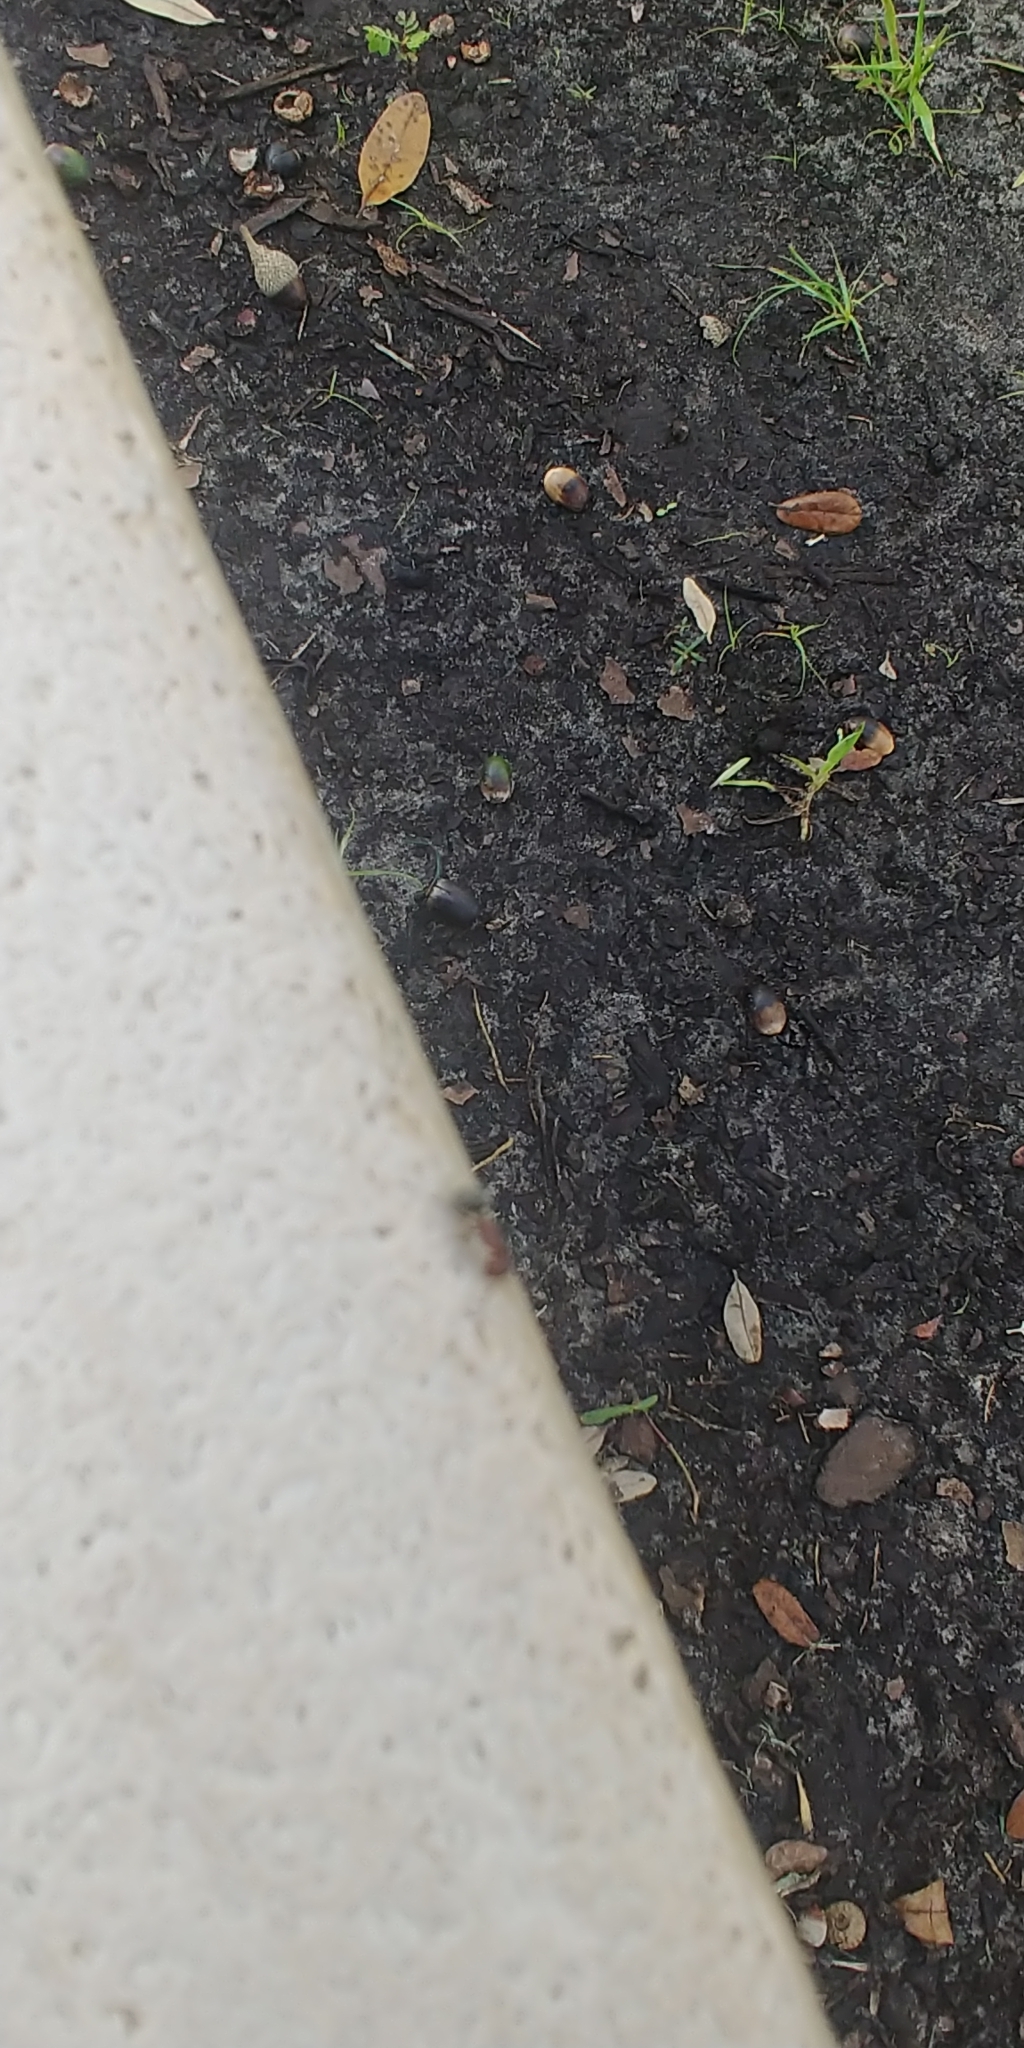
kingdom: Animalia
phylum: Arthropoda
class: Insecta
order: Hymenoptera
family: Formicidae
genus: Camponotus
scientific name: Camponotus planatus
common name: Compact carpenter ant
